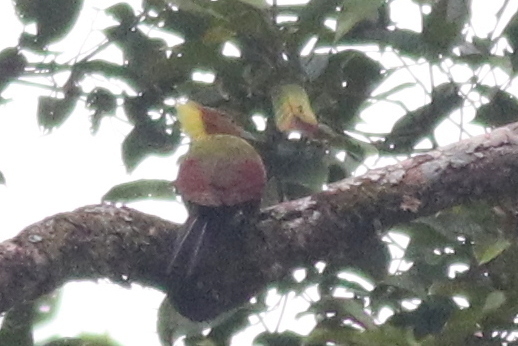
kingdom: Animalia
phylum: Chordata
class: Aves
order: Piciformes
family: Picidae
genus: Chrysophlegma
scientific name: Chrysophlegma mentale
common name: Checker-throated woodpecker
